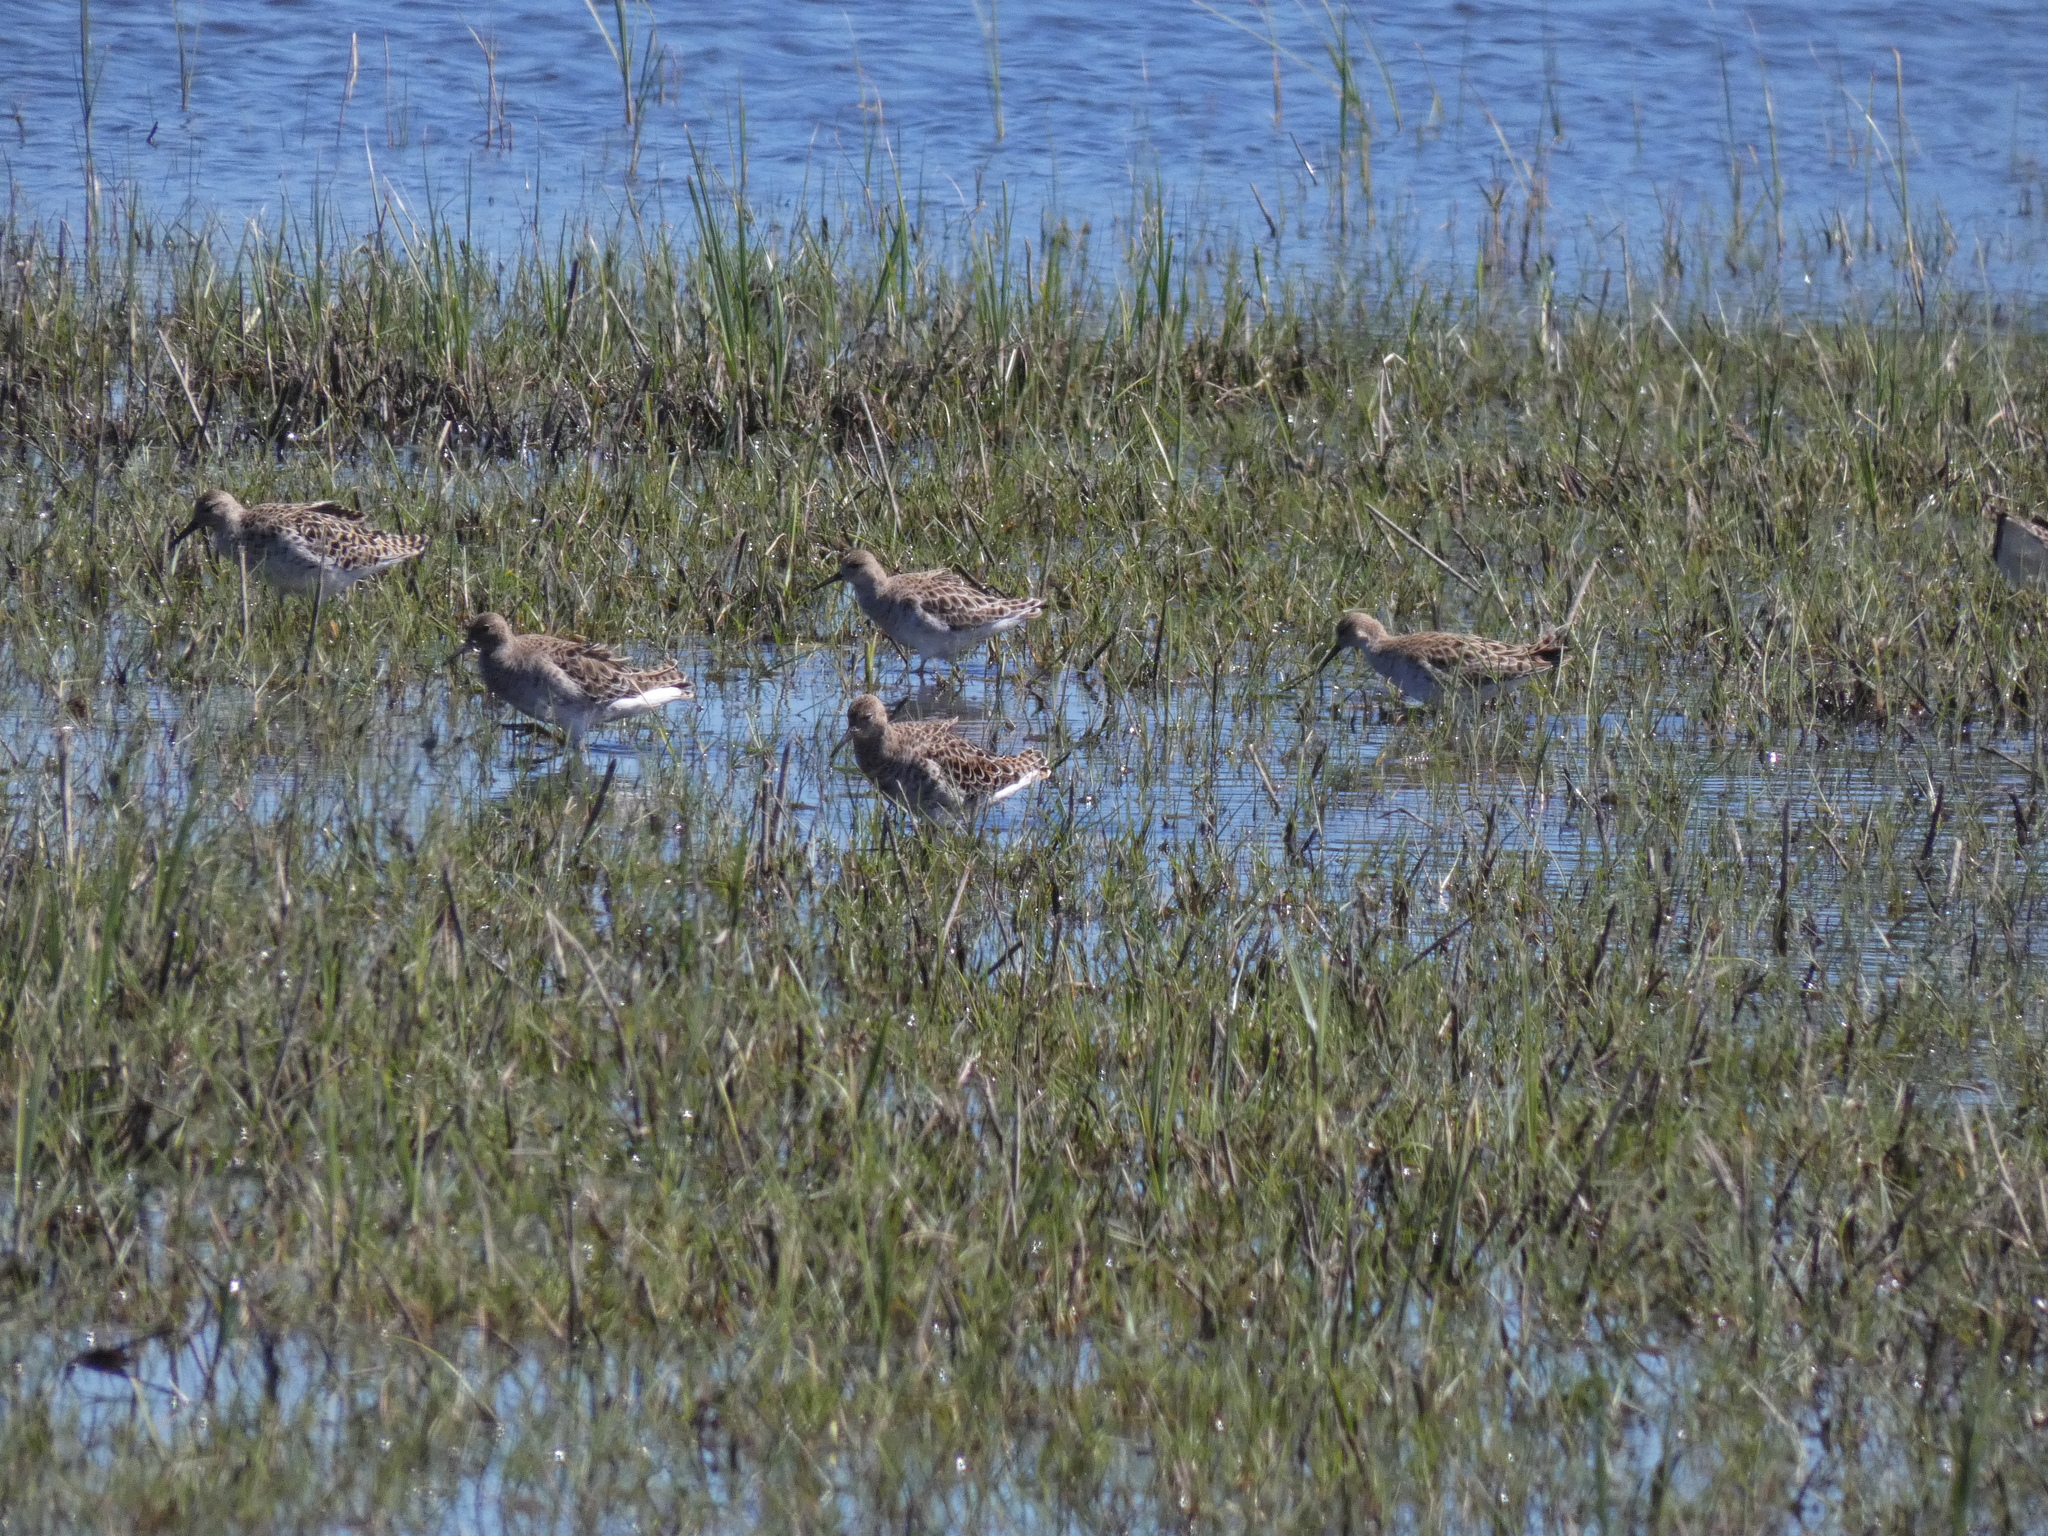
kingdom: Animalia
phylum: Chordata
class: Aves
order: Charadriiformes
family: Scolopacidae
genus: Calidris
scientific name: Calidris pugnax
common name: Ruff
